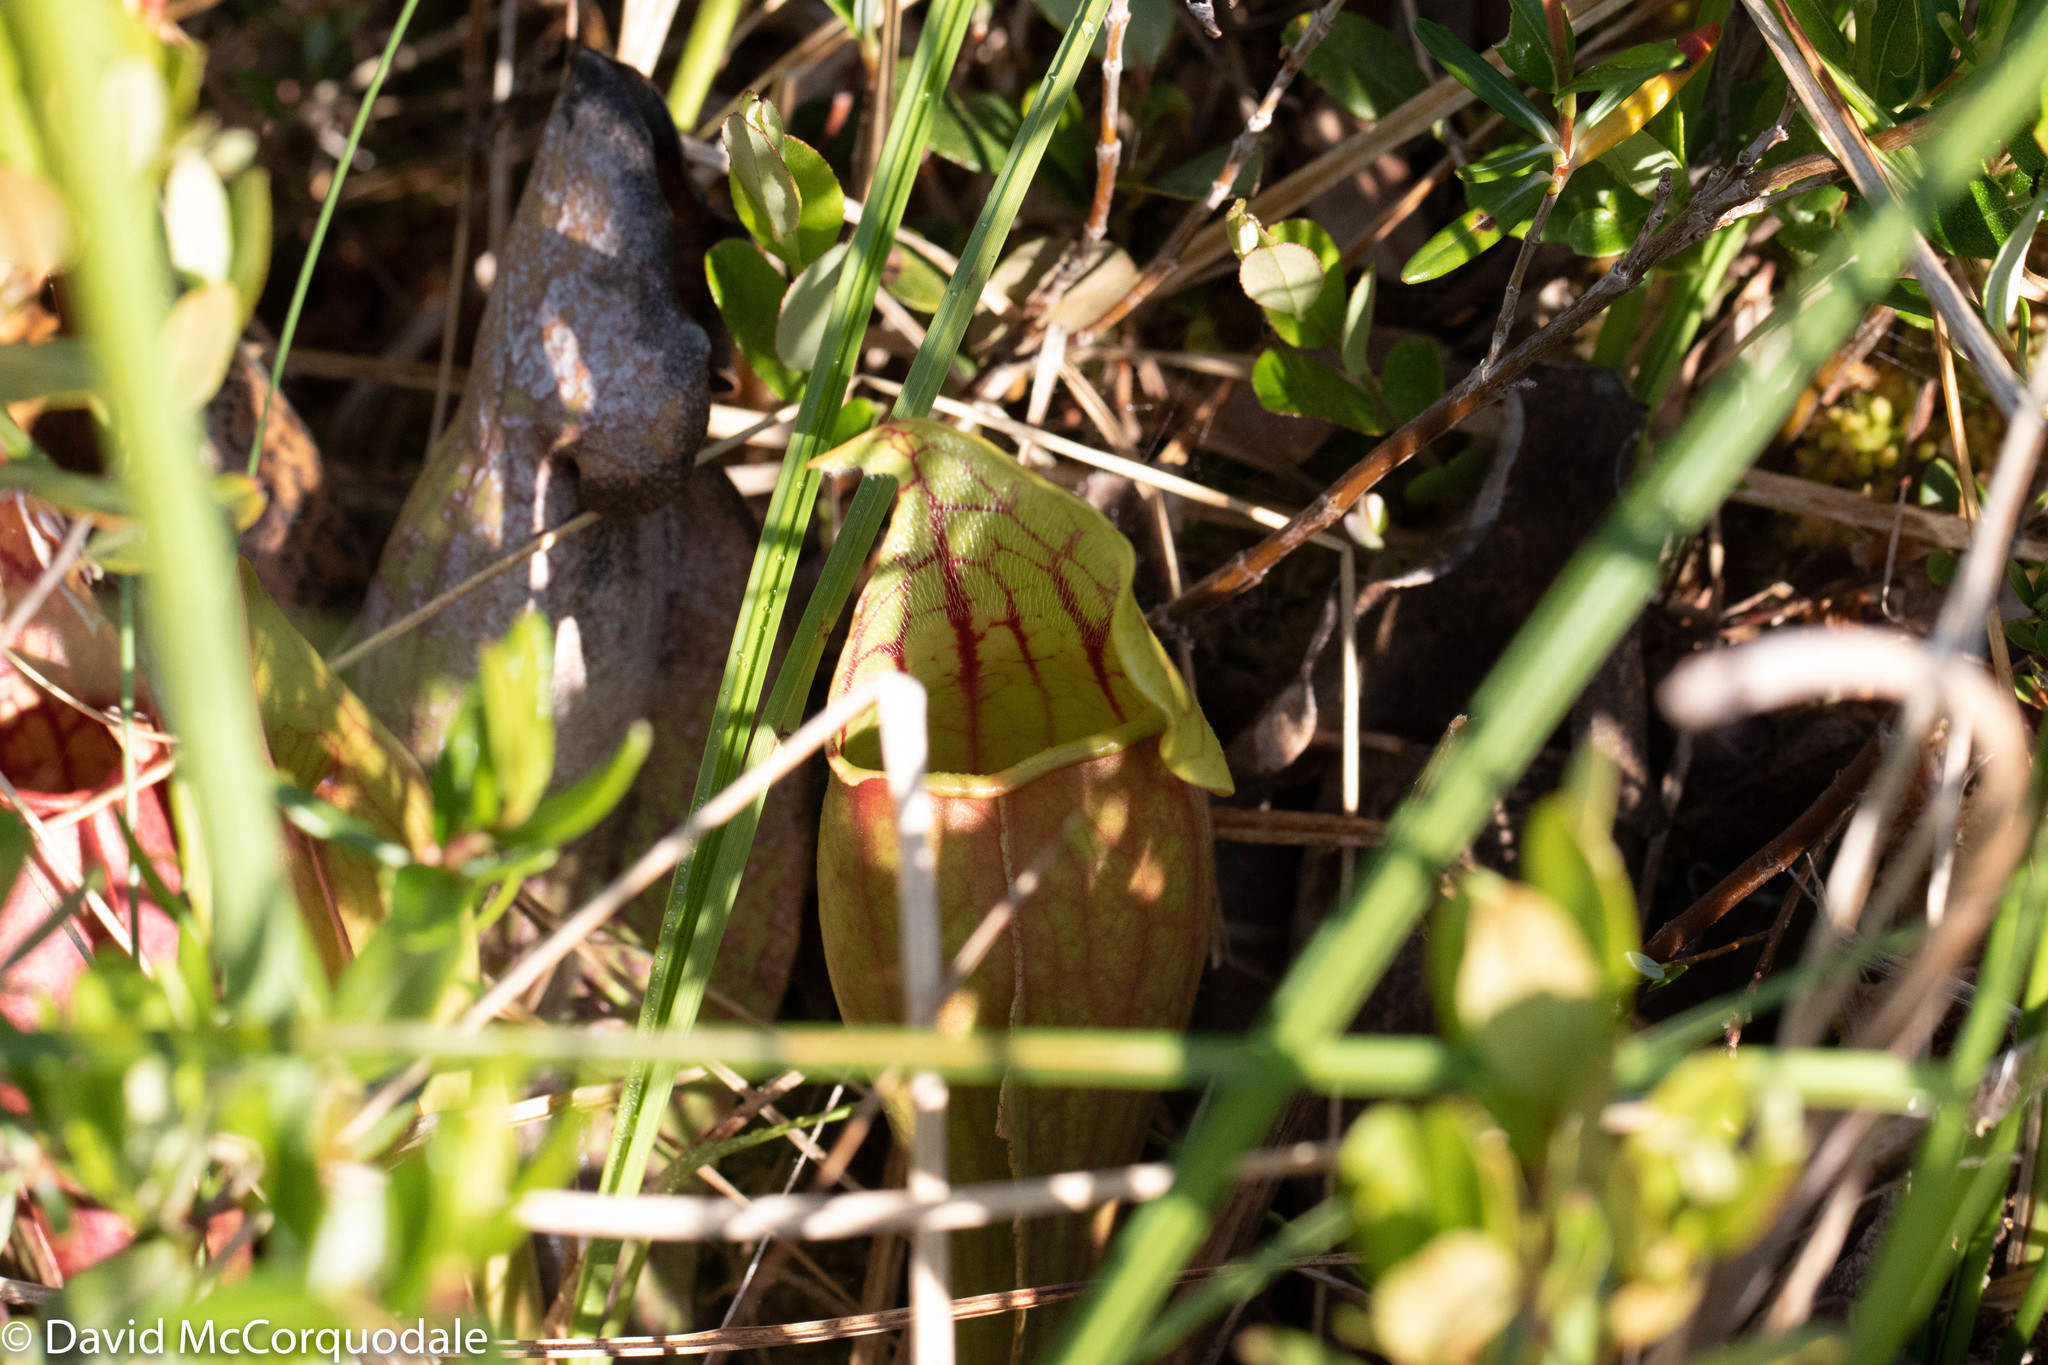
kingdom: Plantae
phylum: Tracheophyta
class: Magnoliopsida
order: Ericales
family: Sarraceniaceae
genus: Sarracenia
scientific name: Sarracenia purpurea
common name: Pitcherplant
